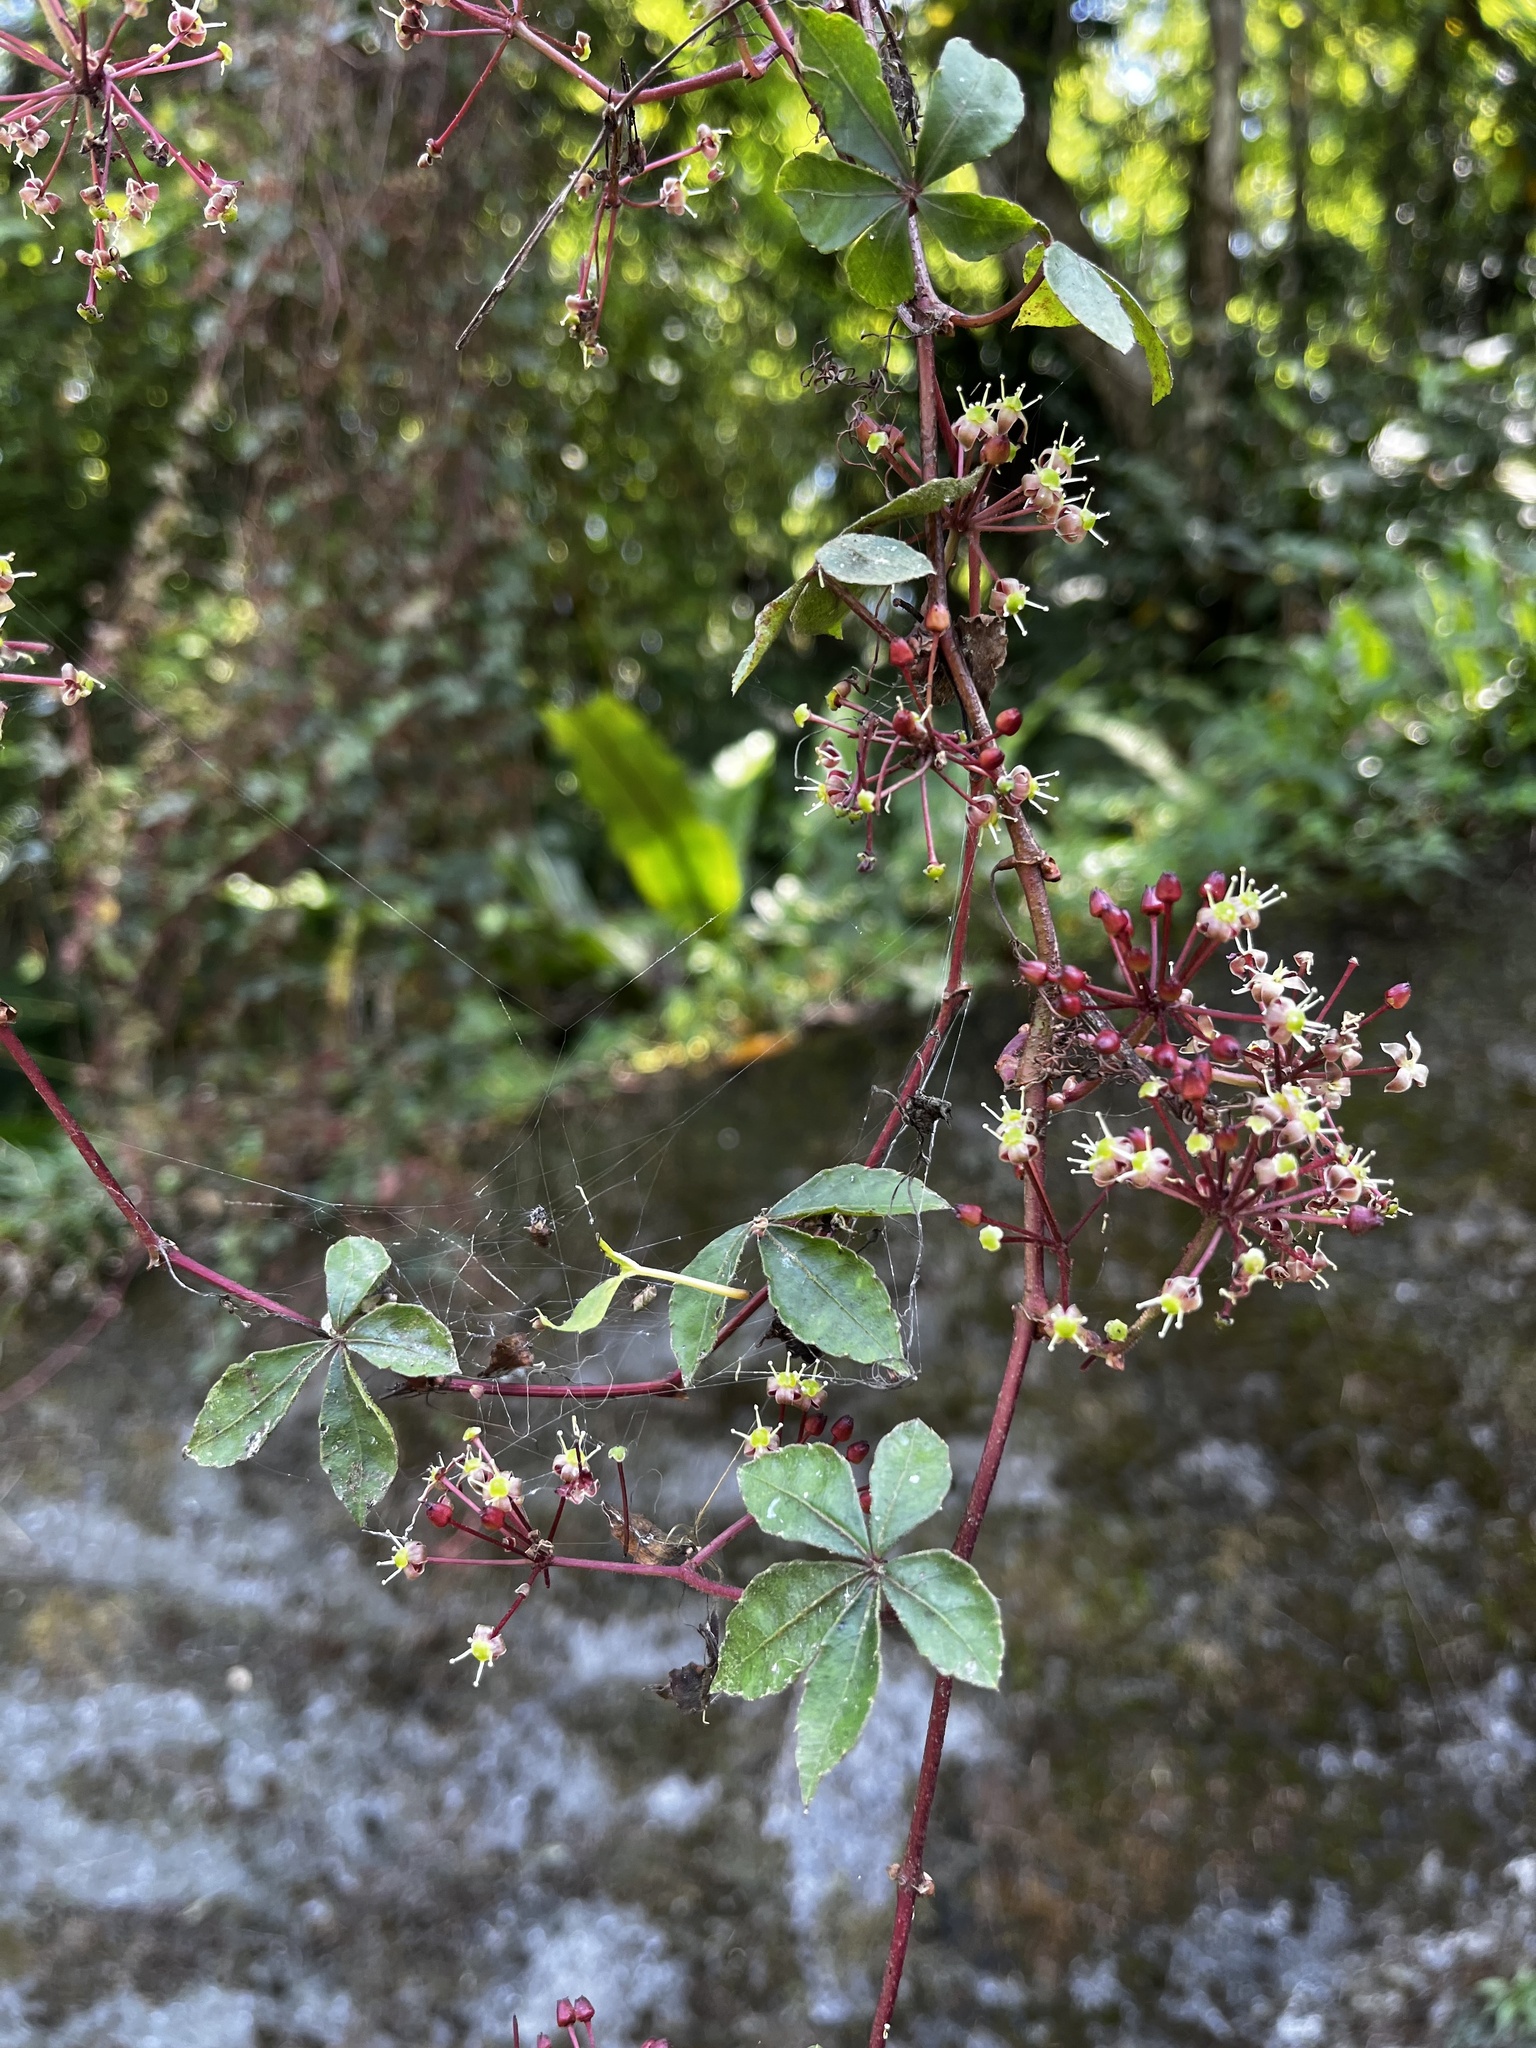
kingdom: Plantae
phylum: Tracheophyta
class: Magnoliopsida
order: Vitales
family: Vitaceae
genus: Tetrastigma
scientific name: Tetrastigma obtectum
